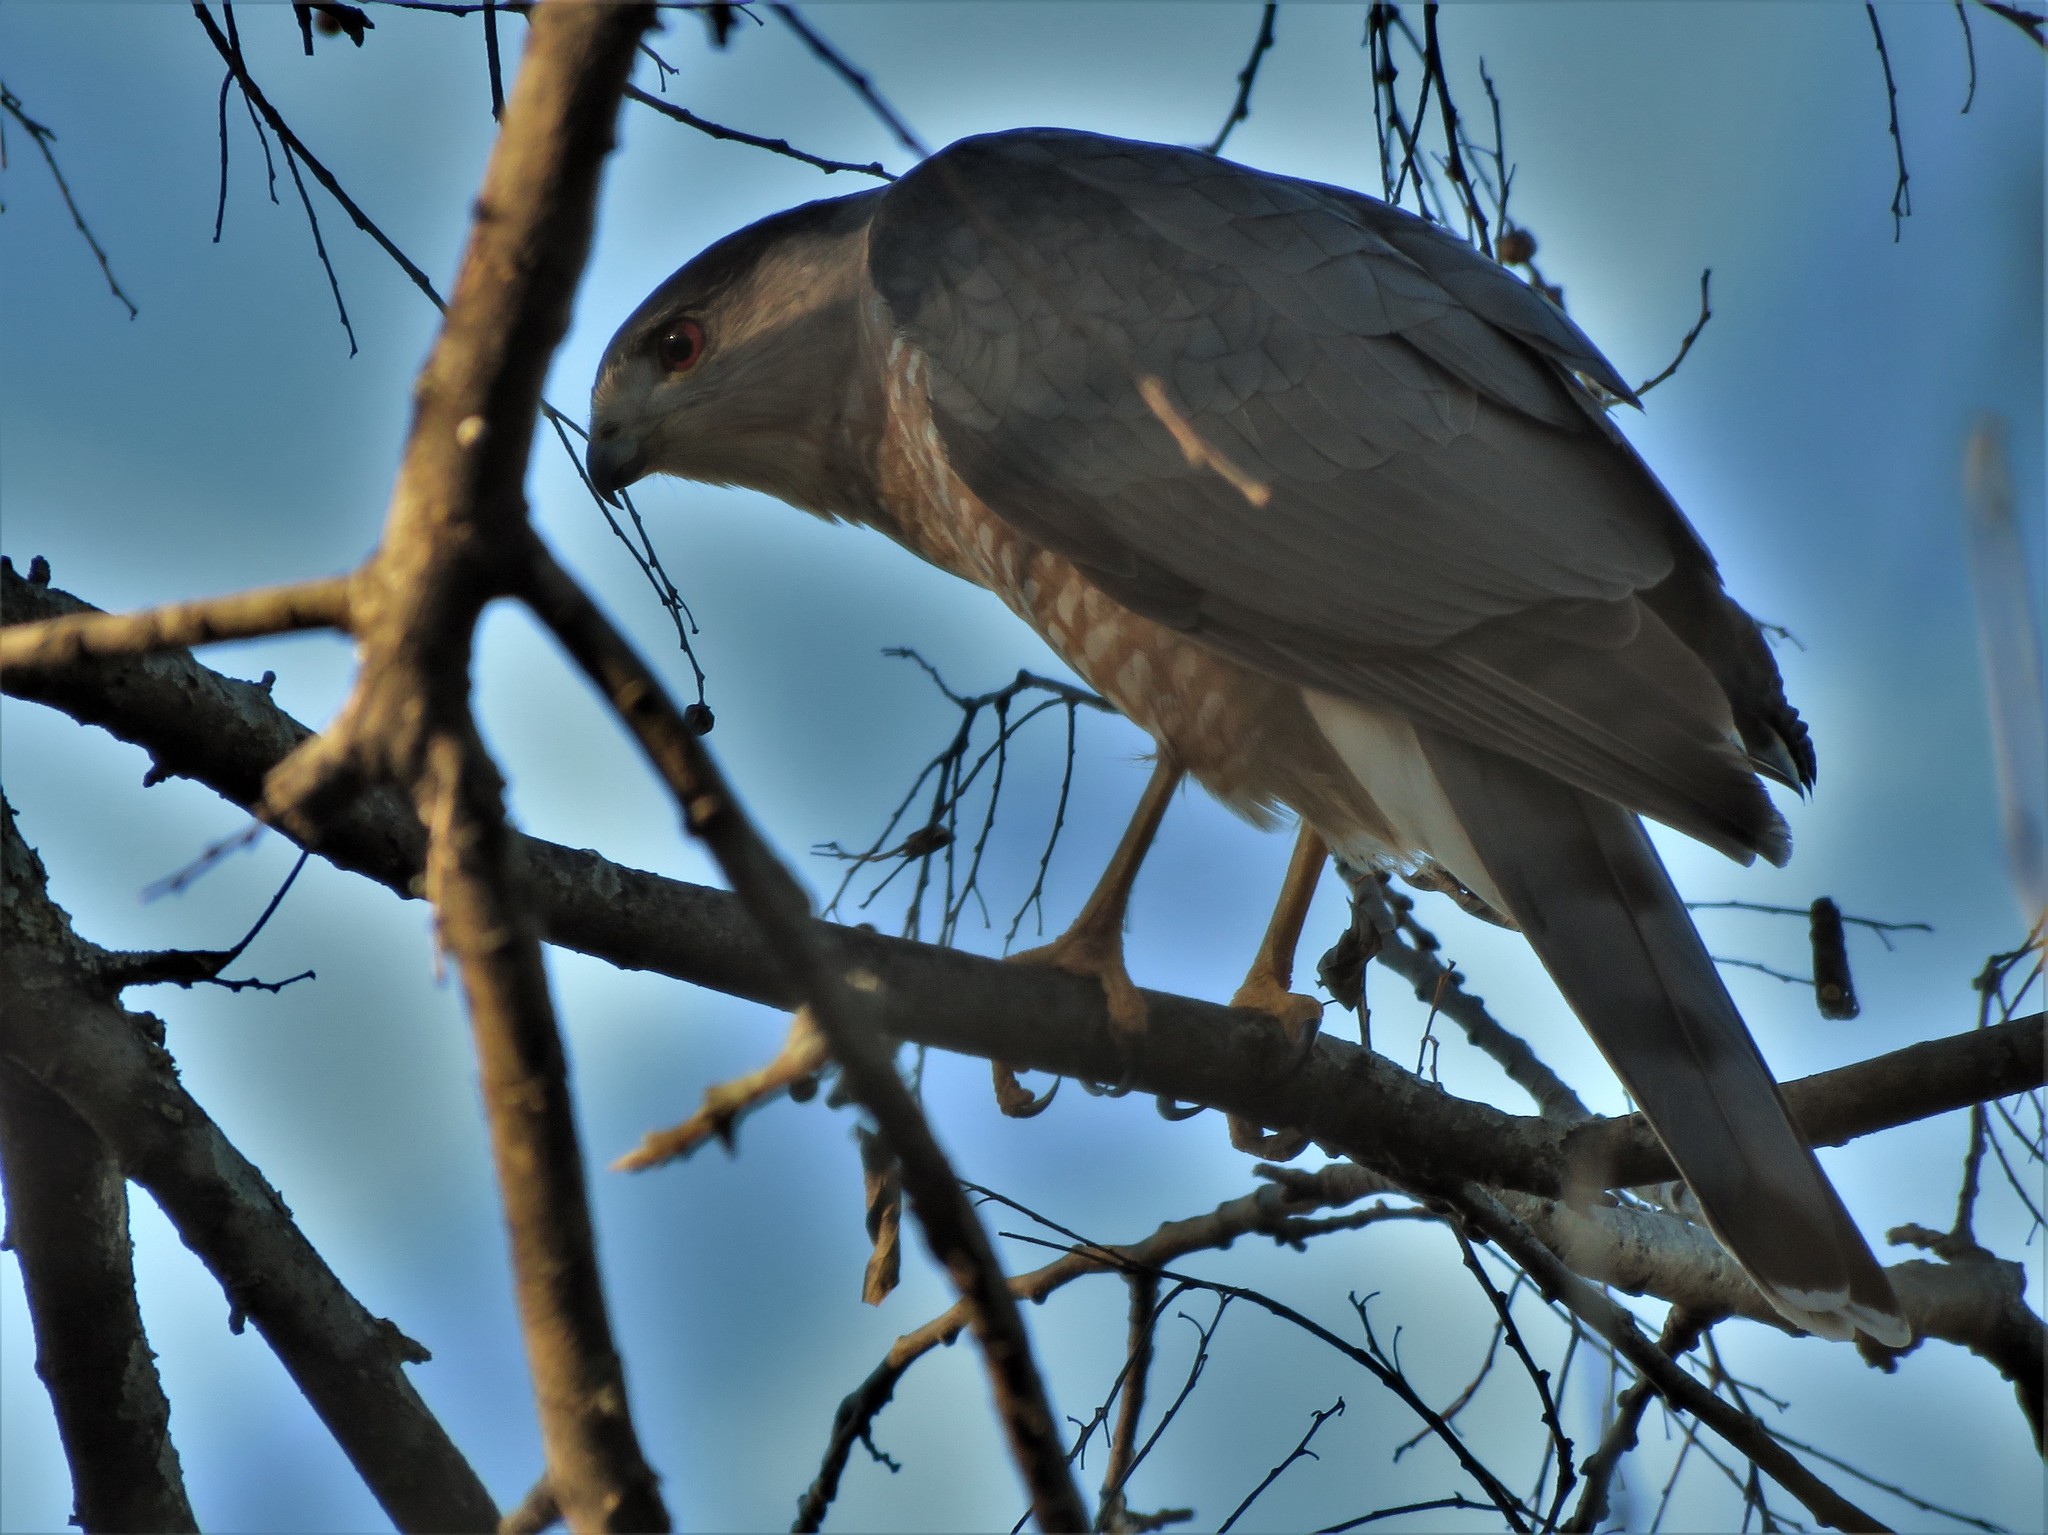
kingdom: Animalia
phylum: Chordata
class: Aves
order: Accipitriformes
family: Accipitridae
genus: Accipiter
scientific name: Accipiter cooperii
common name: Cooper's hawk
